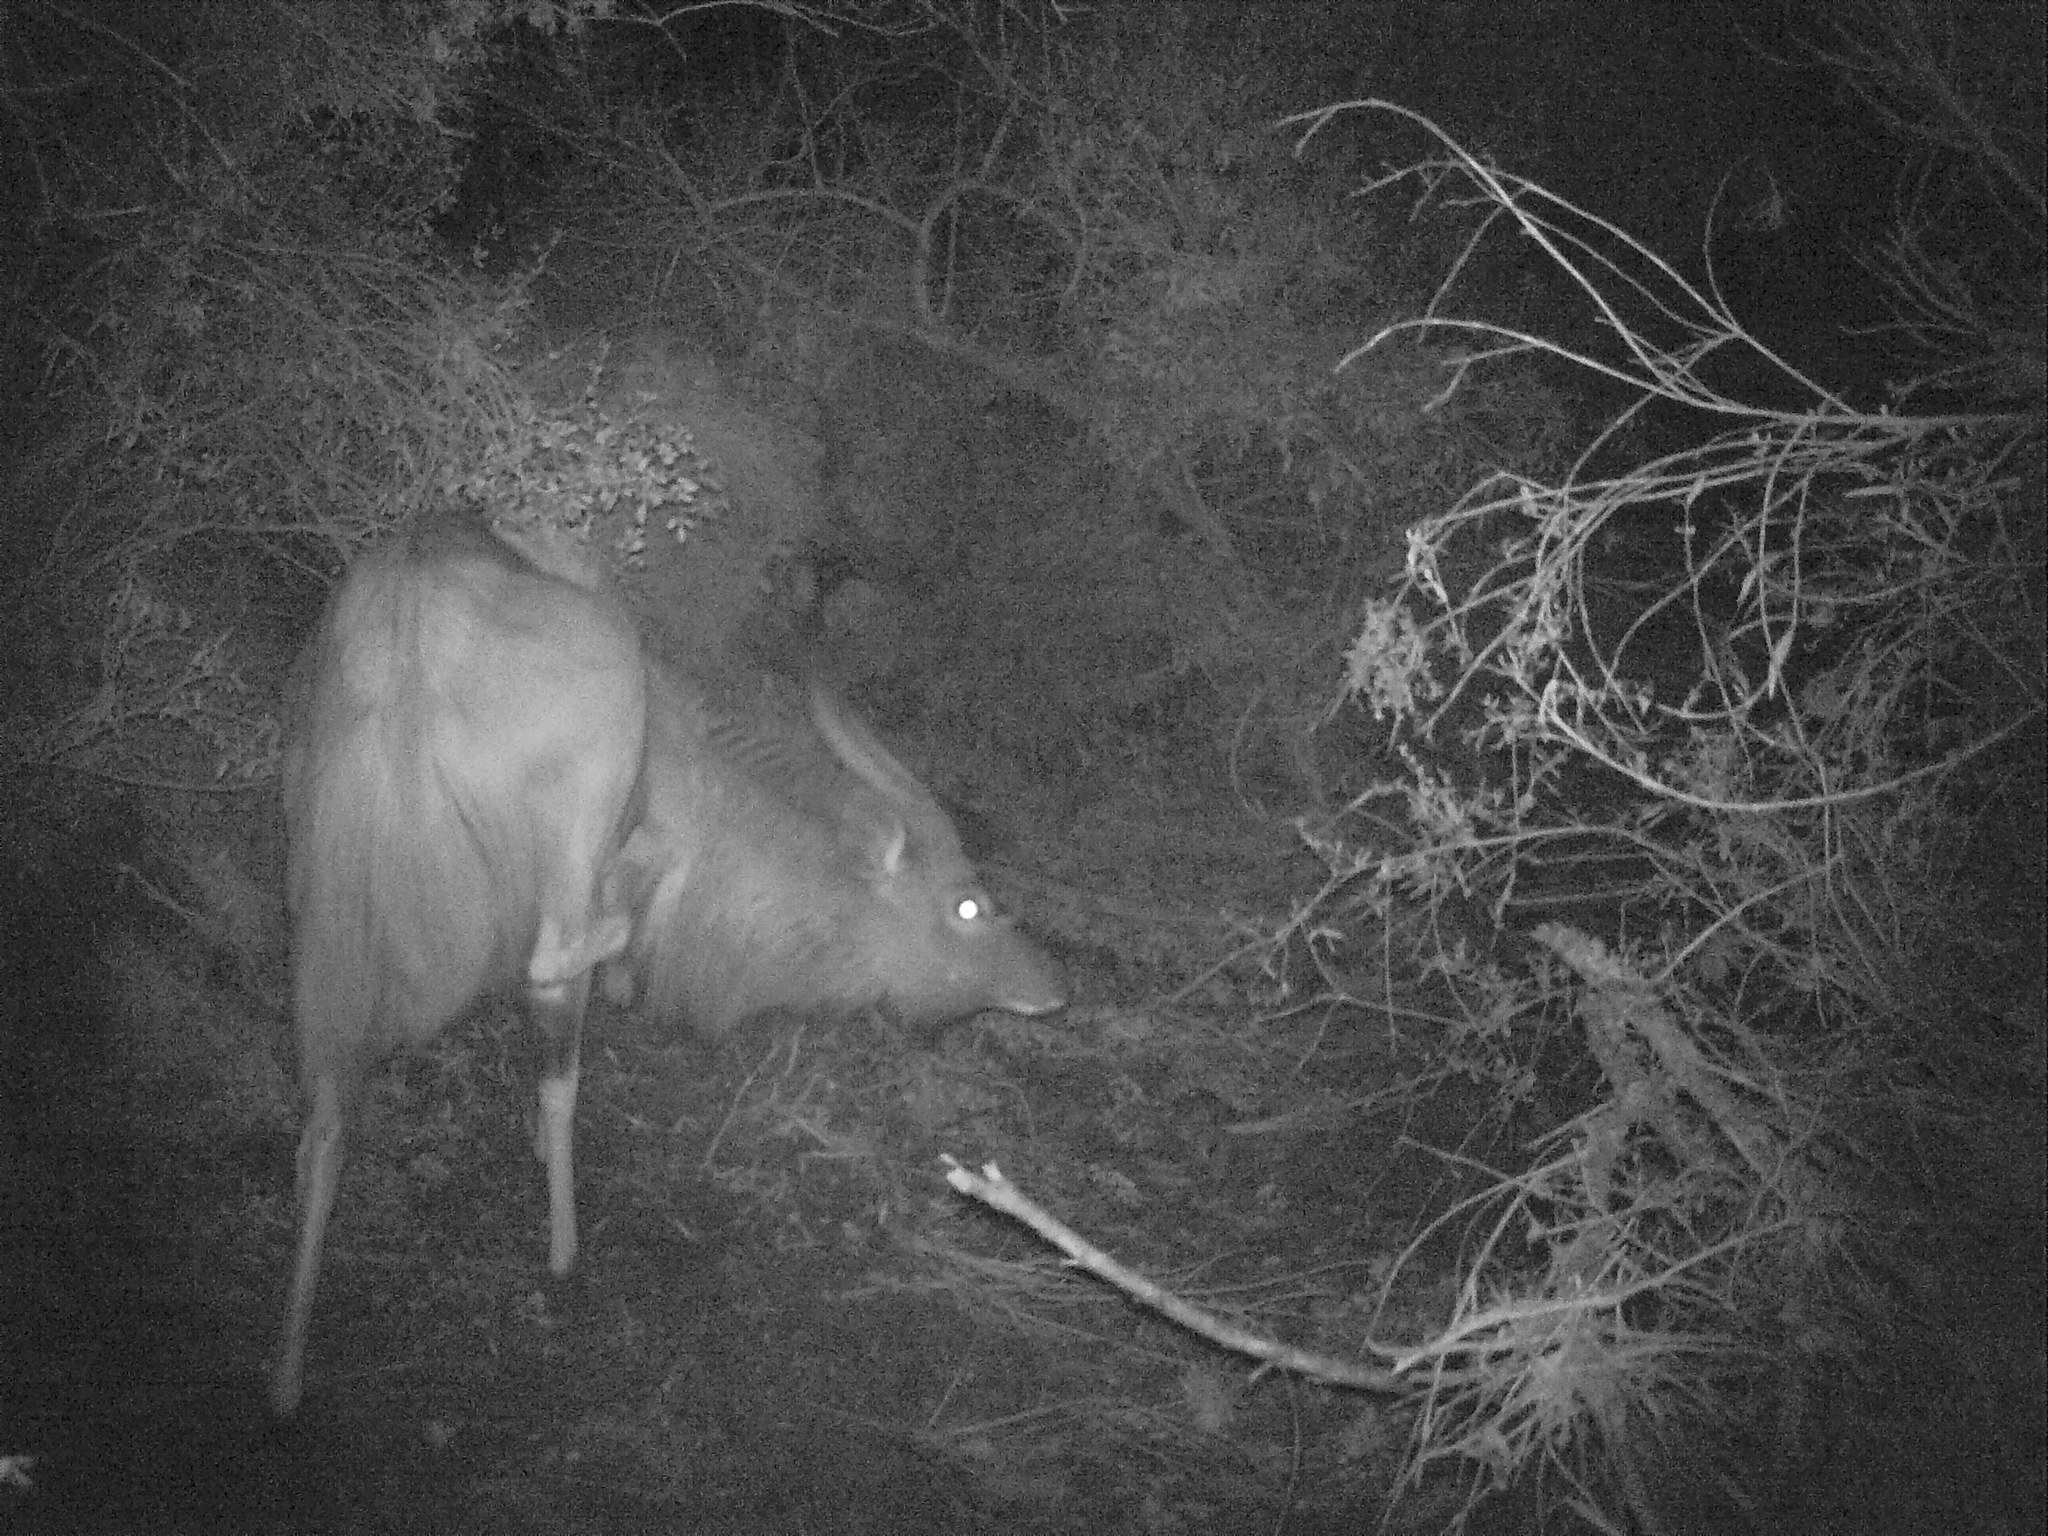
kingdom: Animalia
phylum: Chordata
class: Mammalia
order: Artiodactyla
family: Bovidae
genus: Tragelaphus
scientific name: Tragelaphus angasii
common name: Nyala
